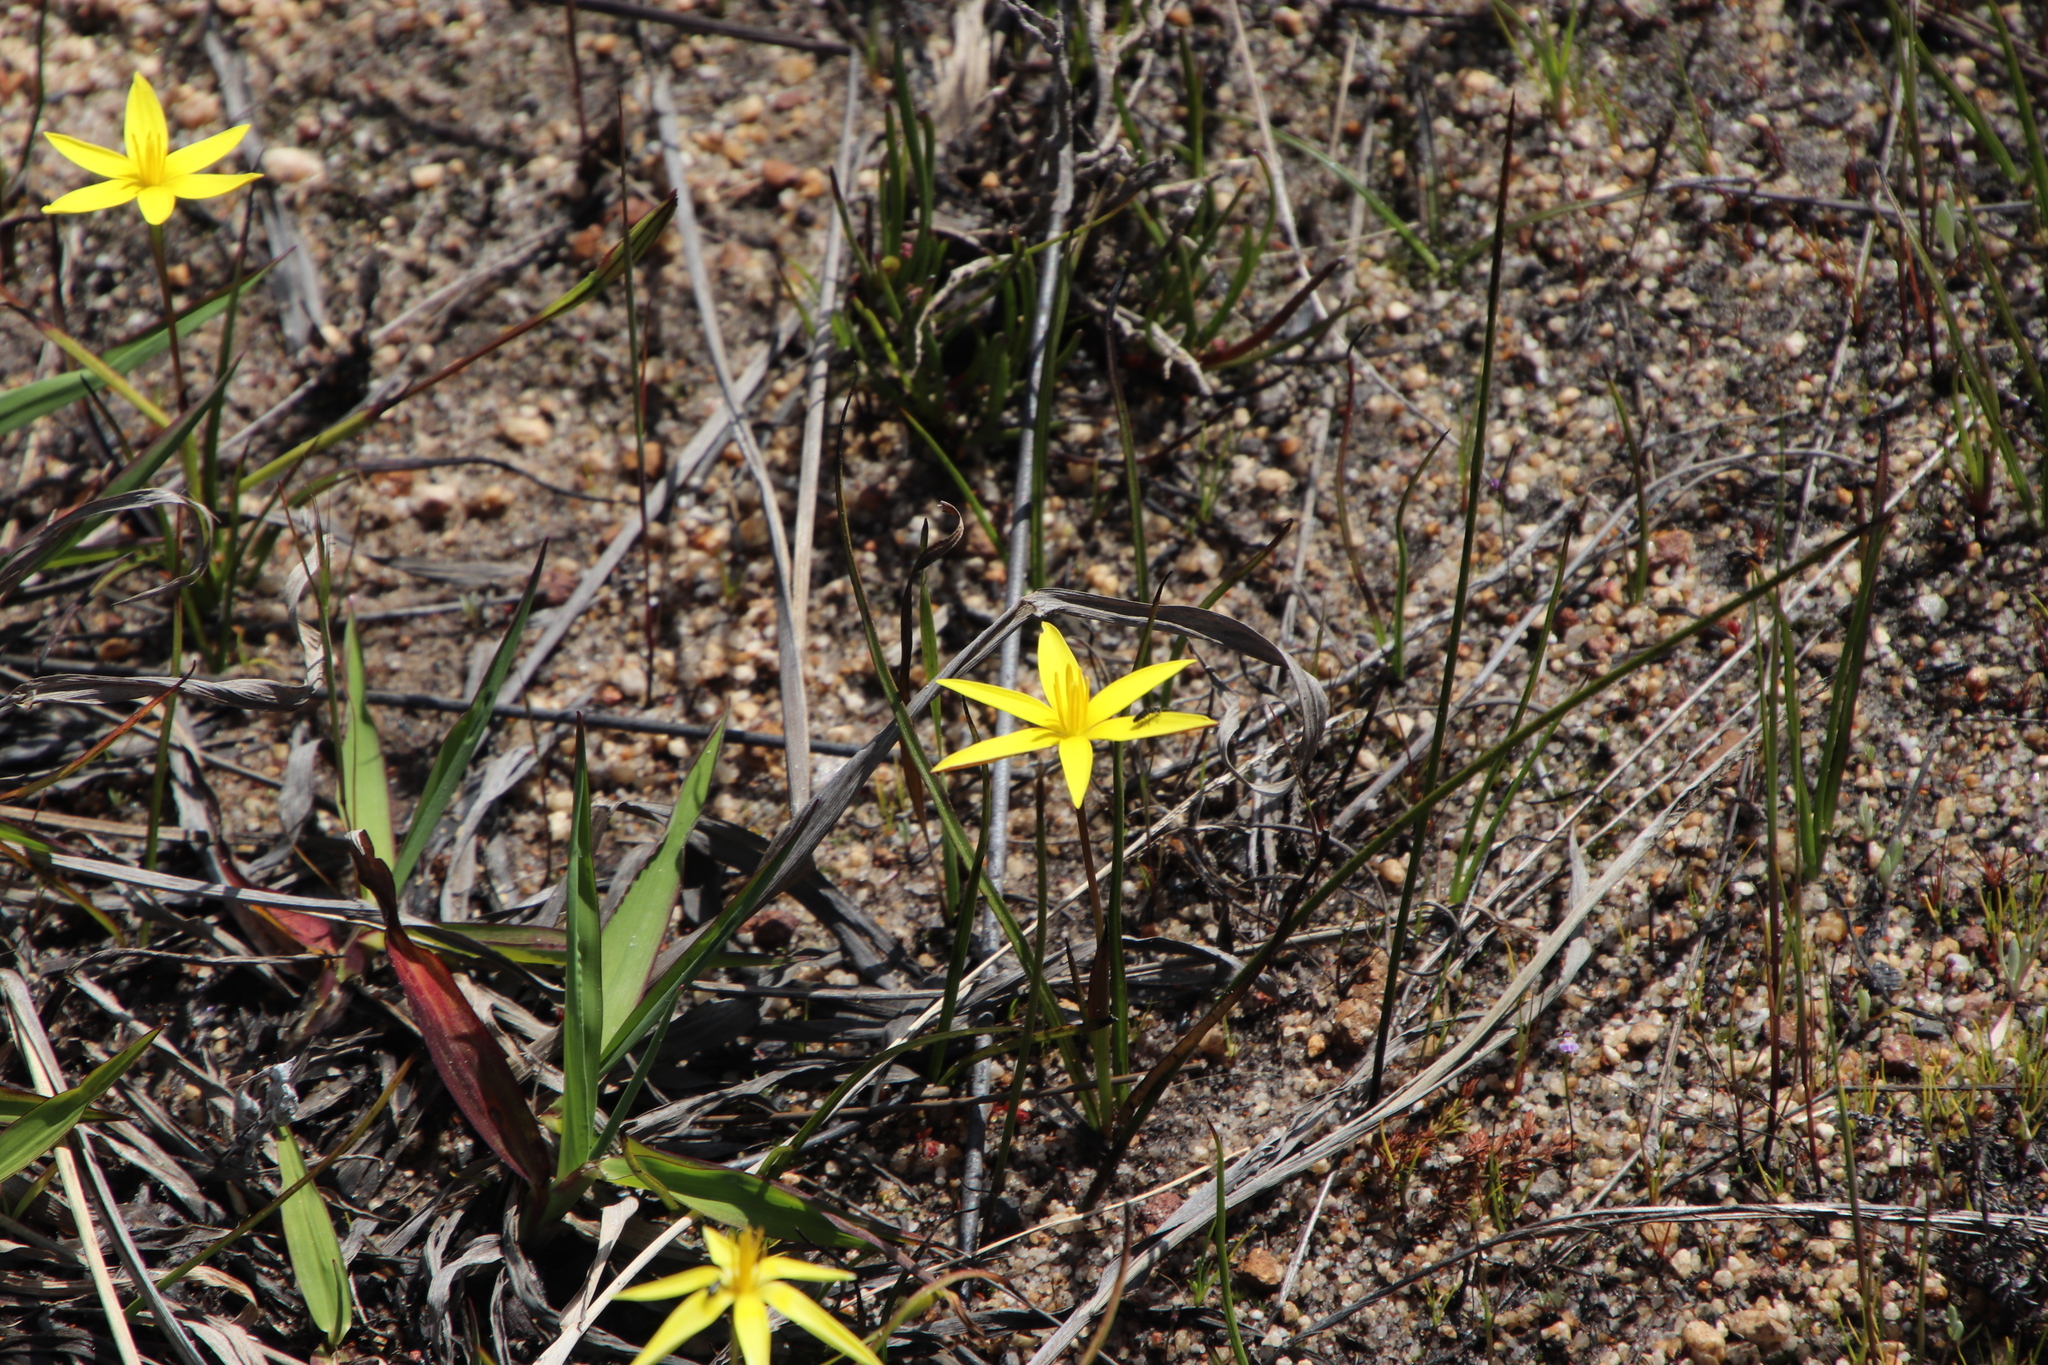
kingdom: Plantae
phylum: Tracheophyta
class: Liliopsida
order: Asparagales
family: Hypoxidaceae
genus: Pauridia
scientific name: Pauridia capensis
